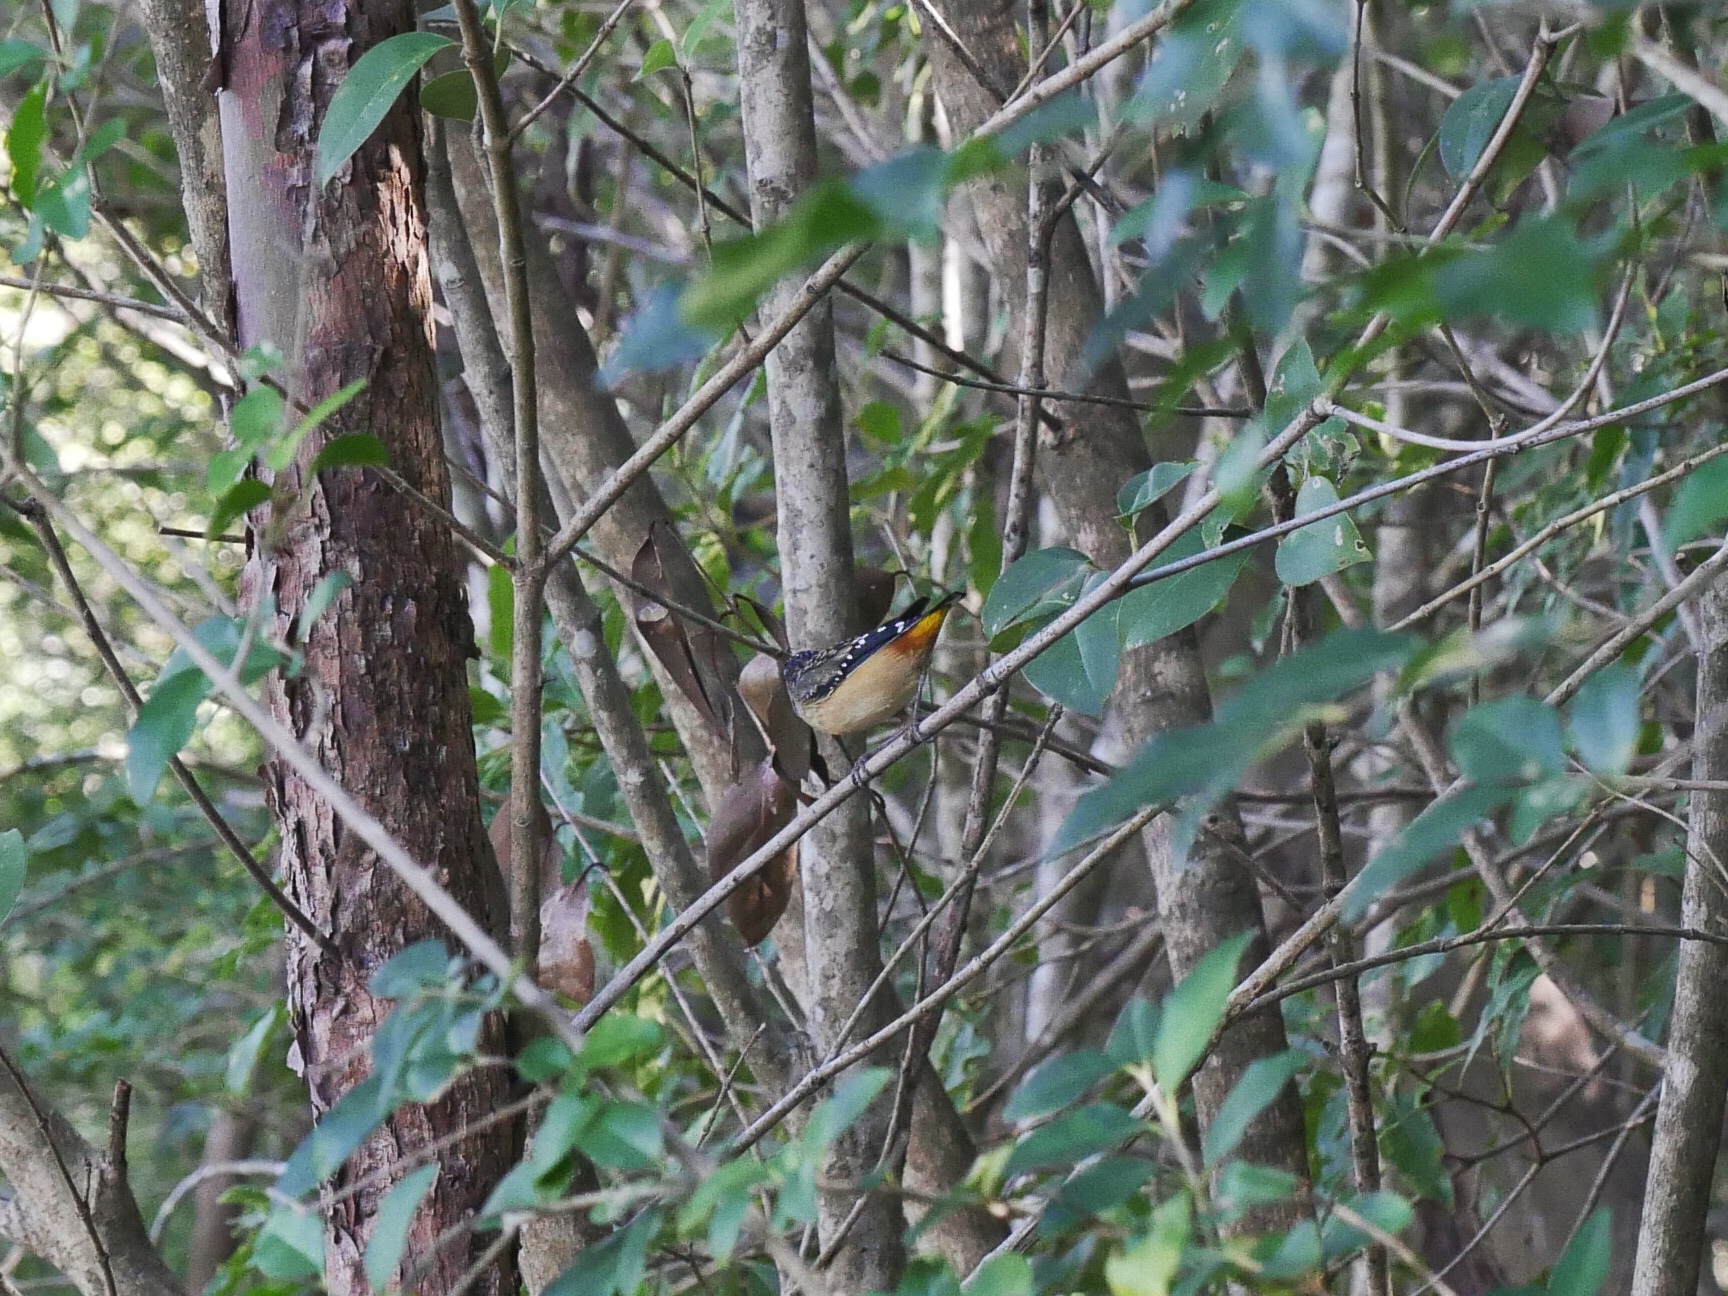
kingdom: Animalia
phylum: Chordata
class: Aves
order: Passeriformes
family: Pardalotidae
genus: Pardalotus
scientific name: Pardalotus punctatus
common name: Spotted pardalote
